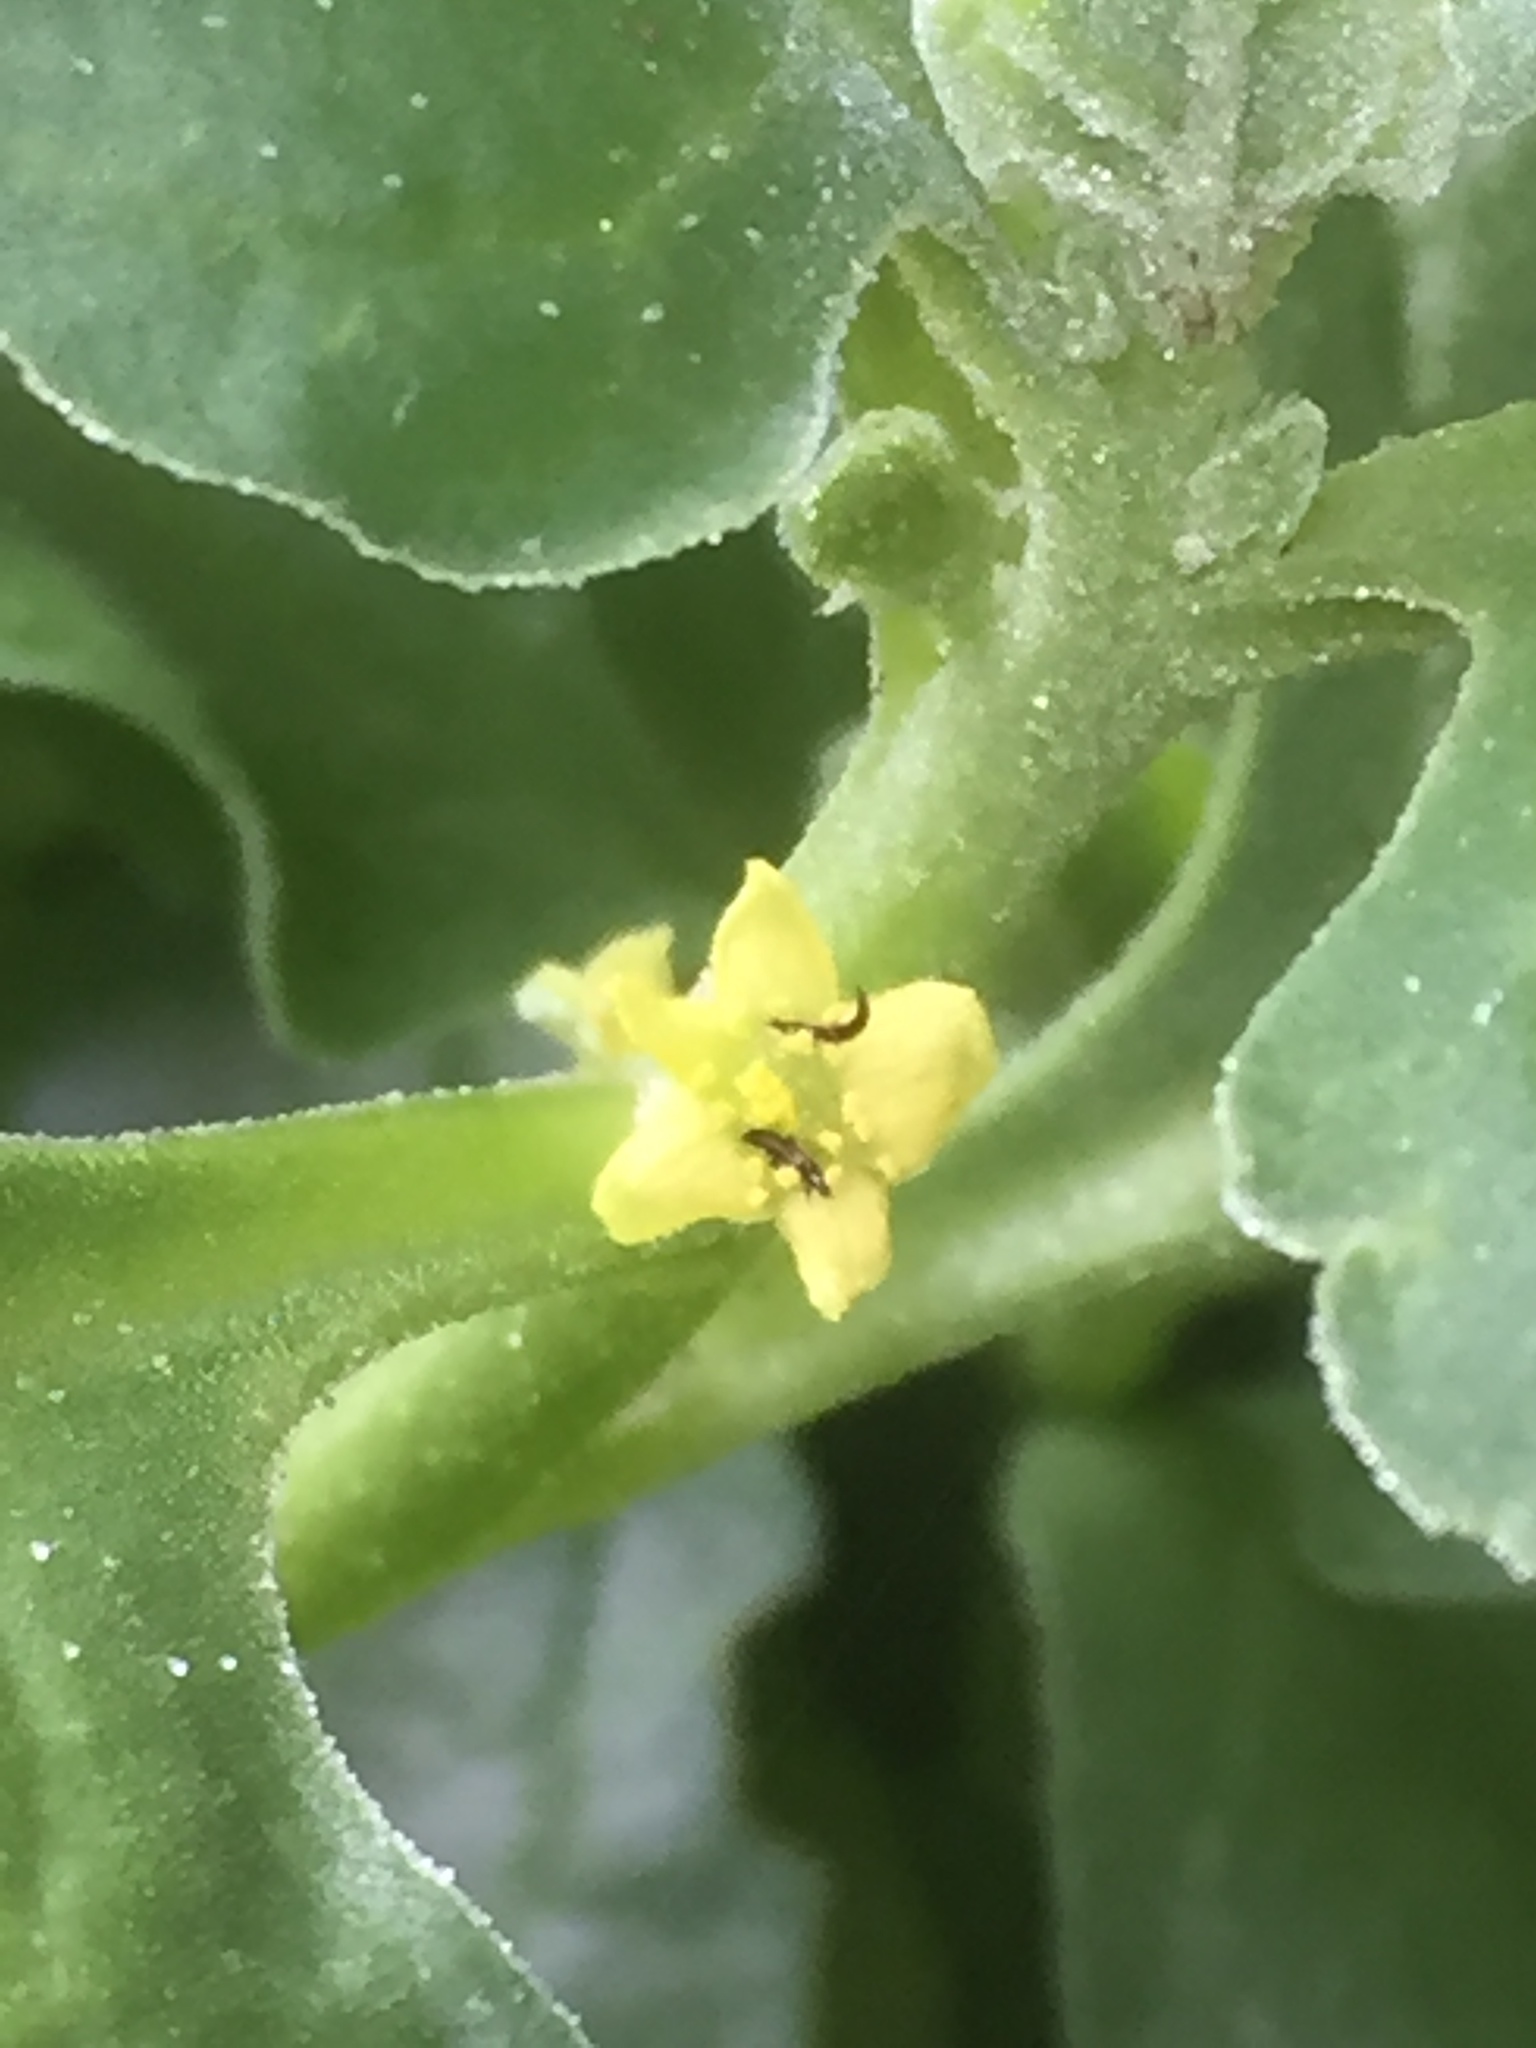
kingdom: Plantae
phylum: Tracheophyta
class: Magnoliopsida
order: Caryophyllales
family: Aizoaceae
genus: Tetragonia
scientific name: Tetragonia tetragonoides
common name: New zealand-spinach
